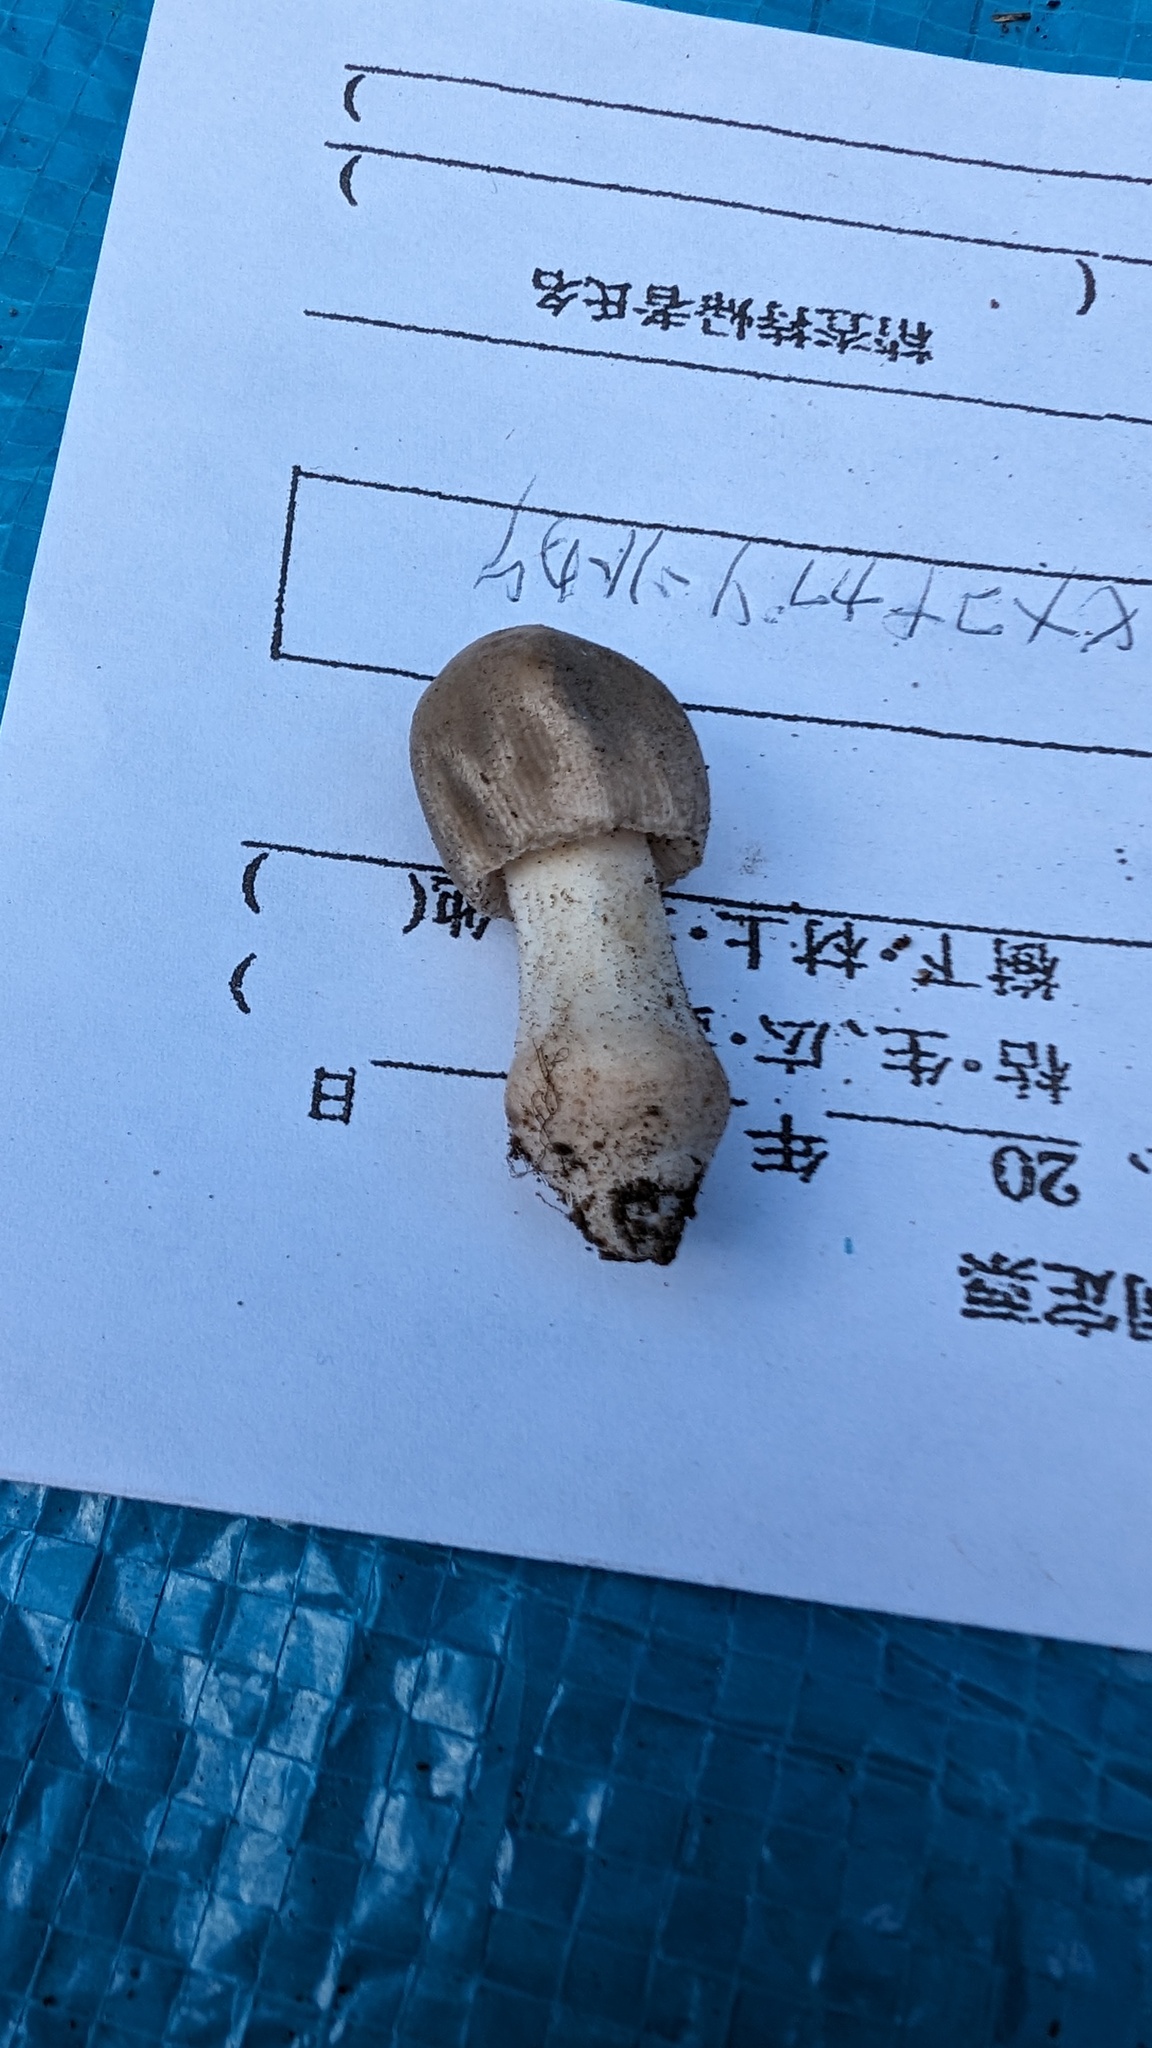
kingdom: Fungi
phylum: Basidiomycota
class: Agaricomycetes
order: Agaricales
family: Amanitaceae
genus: Amanita
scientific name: Amanita farinosa
